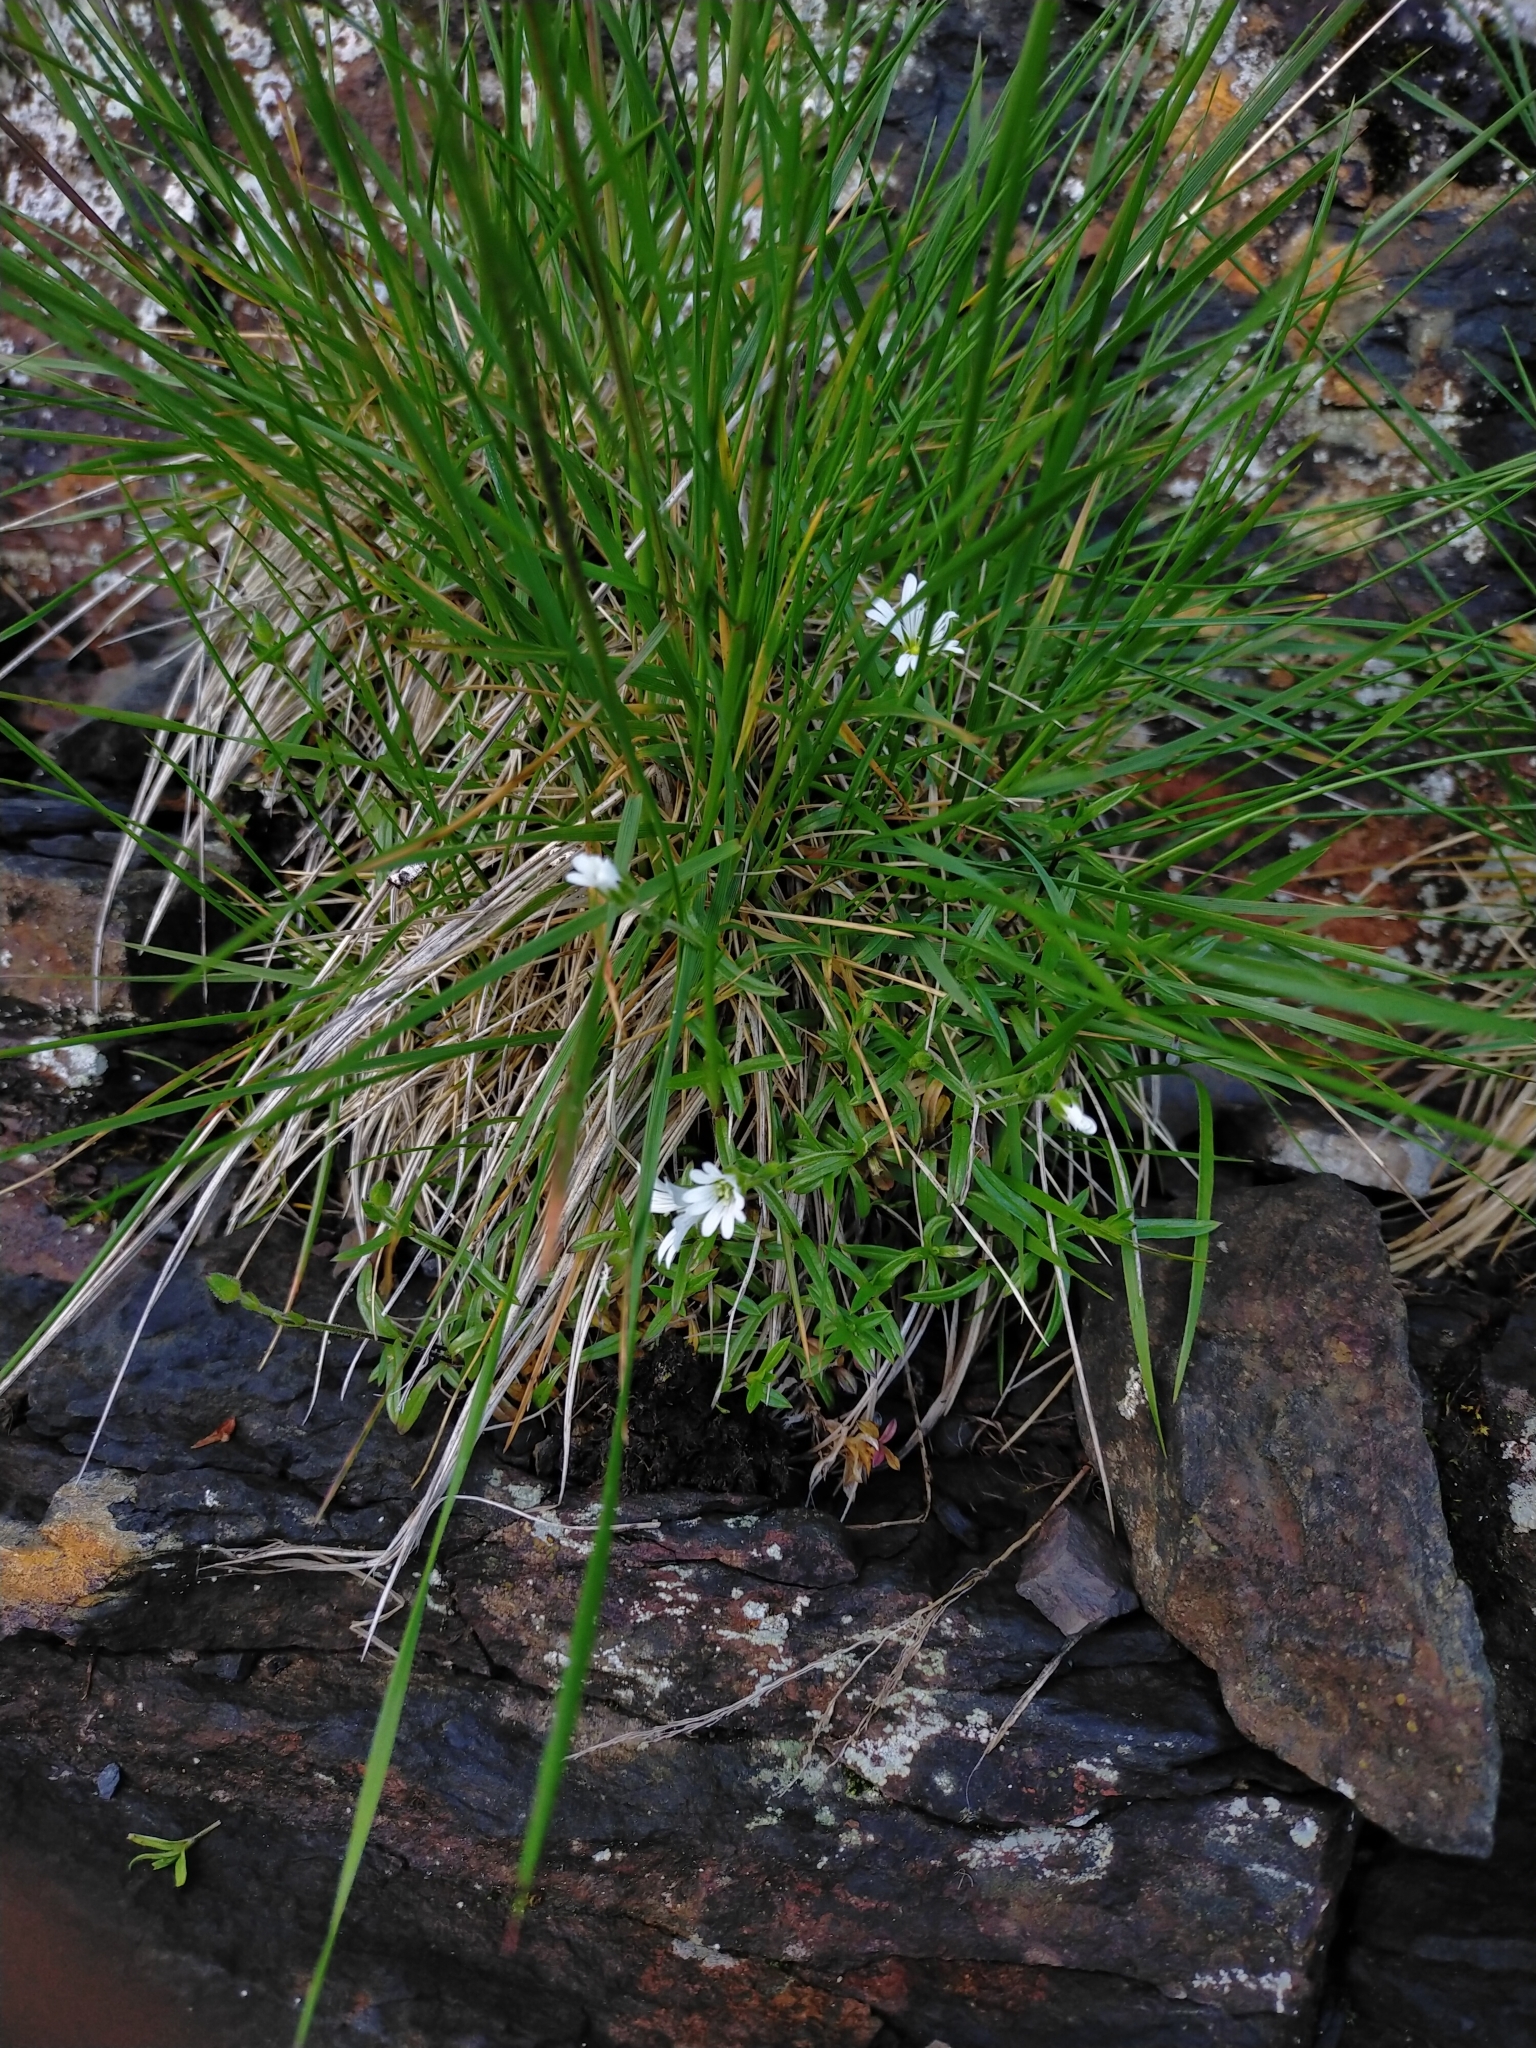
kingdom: Plantae
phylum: Tracheophyta
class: Magnoliopsida
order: Caryophyllales
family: Caryophyllaceae
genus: Cerastium
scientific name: Cerastium morrisonense
